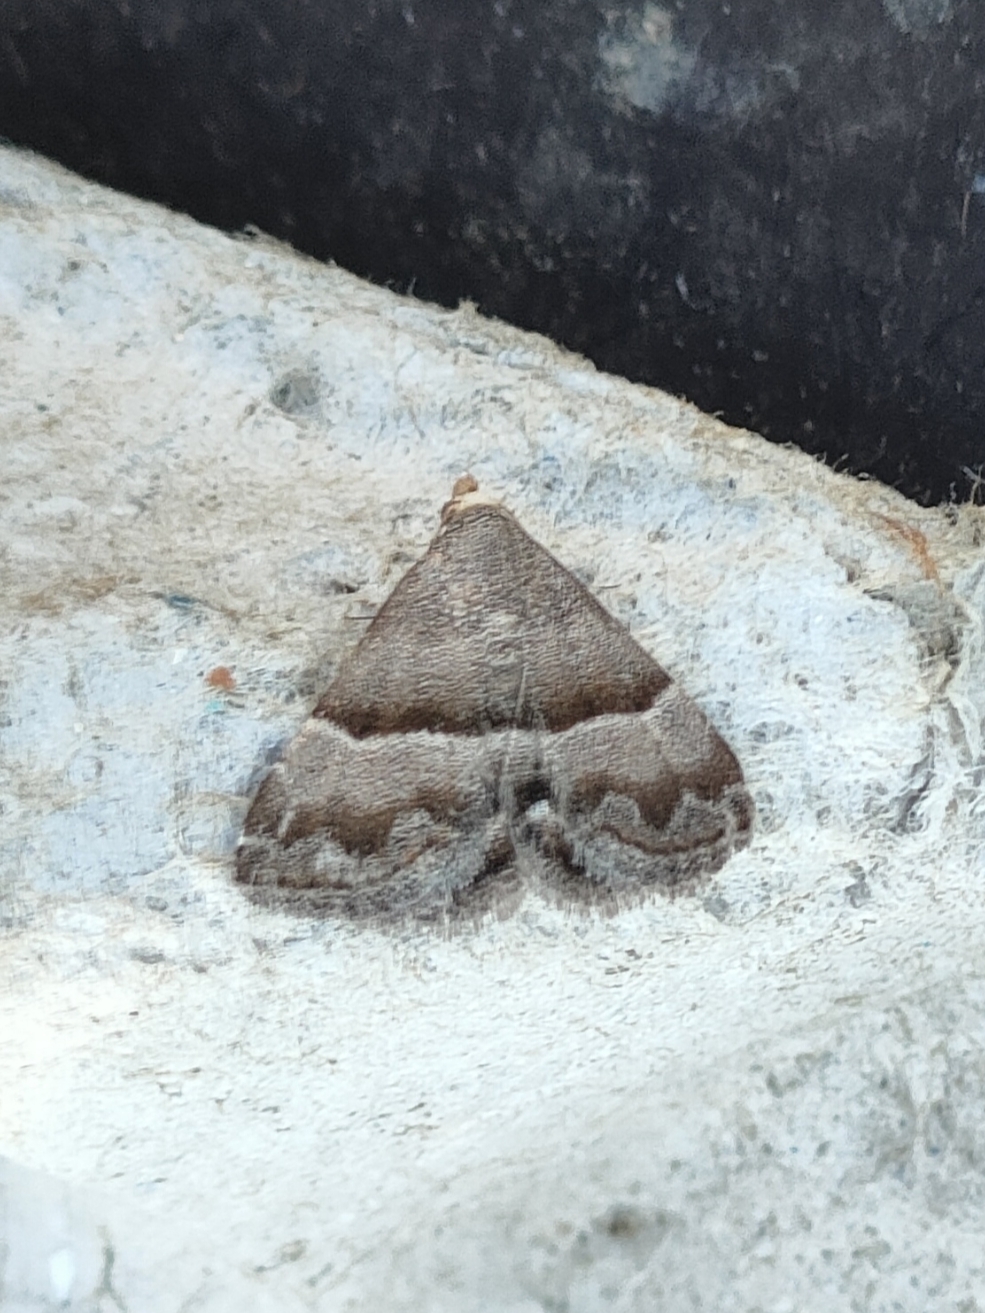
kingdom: Animalia
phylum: Arthropoda
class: Insecta
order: Lepidoptera
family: Noctuidae
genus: Odice
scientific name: Odice jucunda
